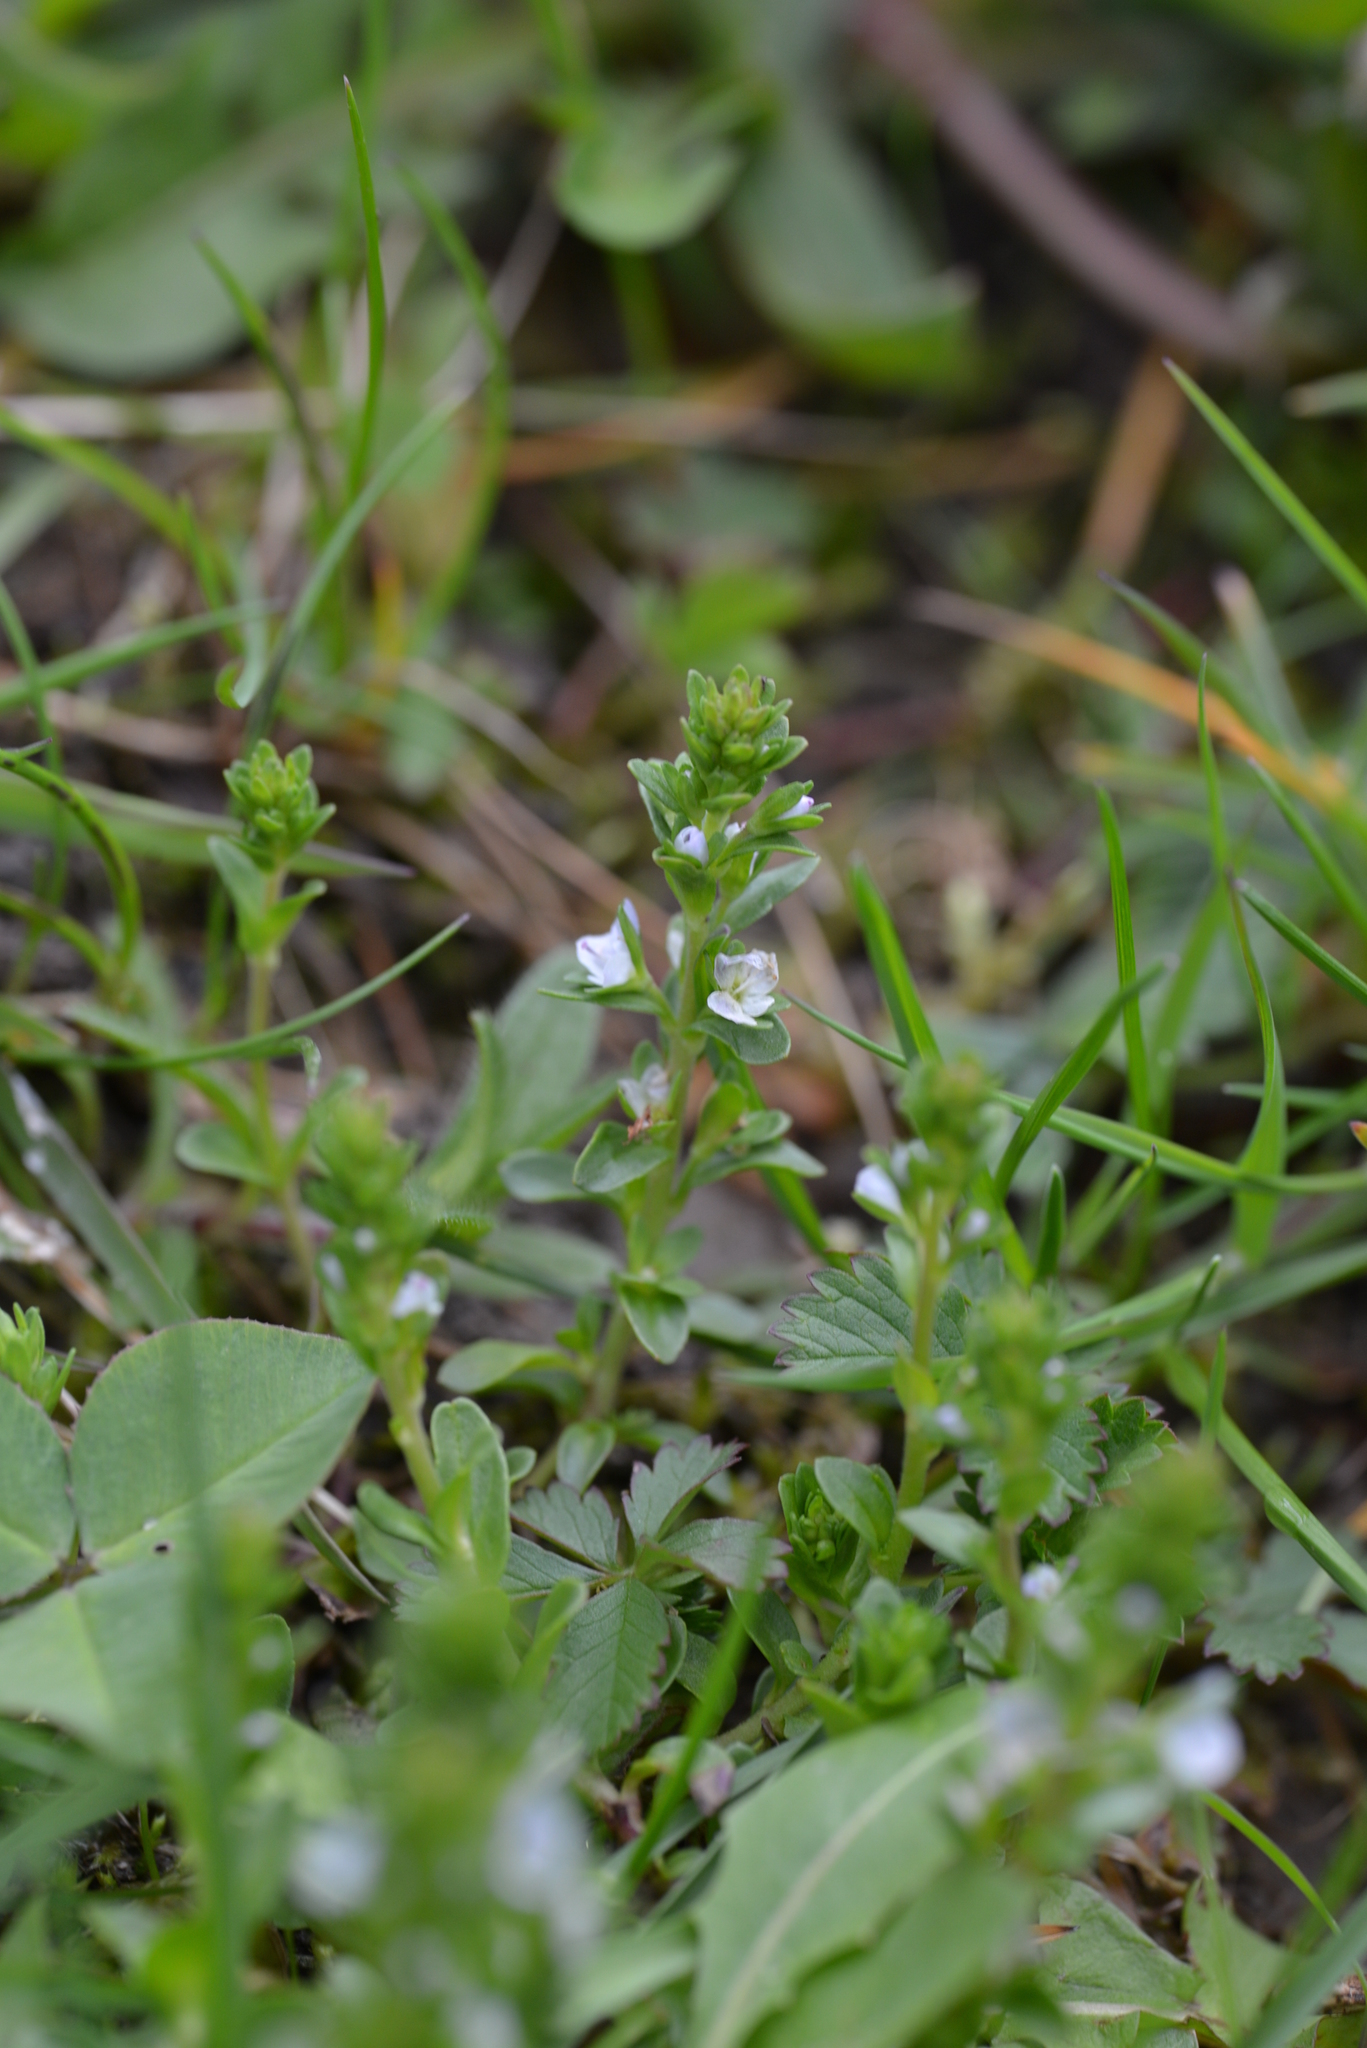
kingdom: Plantae
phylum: Tracheophyta
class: Magnoliopsida
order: Lamiales
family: Plantaginaceae
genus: Veronica
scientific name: Veronica serpyllifolia
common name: Thyme-leaved speedwell
